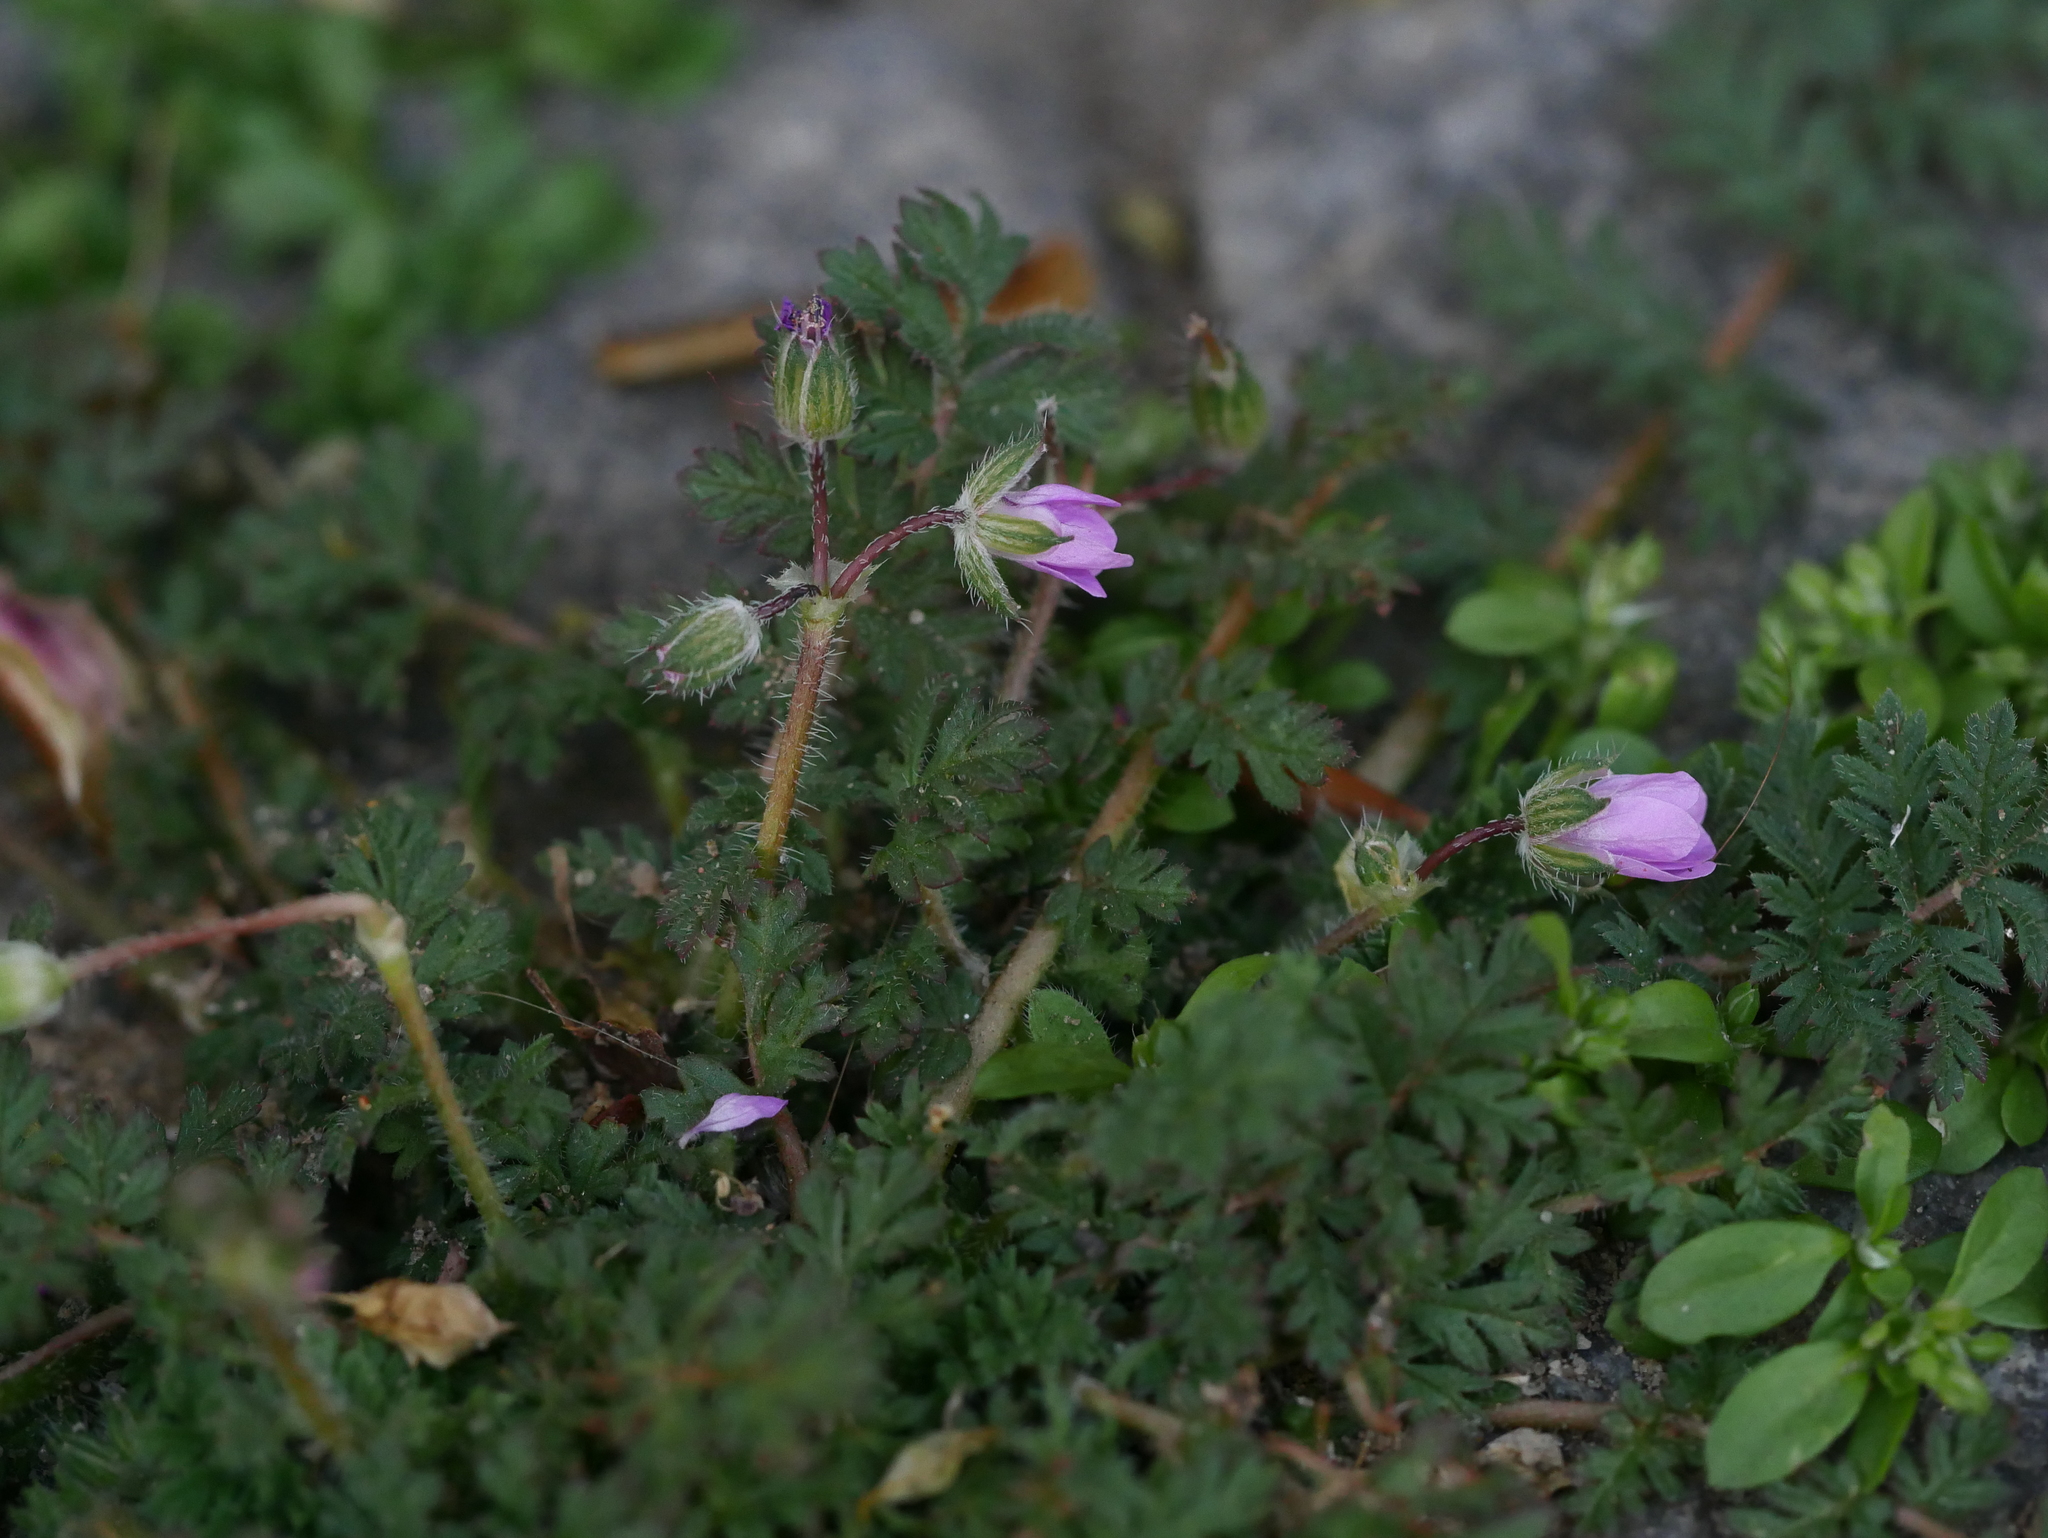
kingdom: Plantae
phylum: Tracheophyta
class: Magnoliopsida
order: Geraniales
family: Geraniaceae
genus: Erodium
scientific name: Erodium cicutarium
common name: Common stork's-bill
